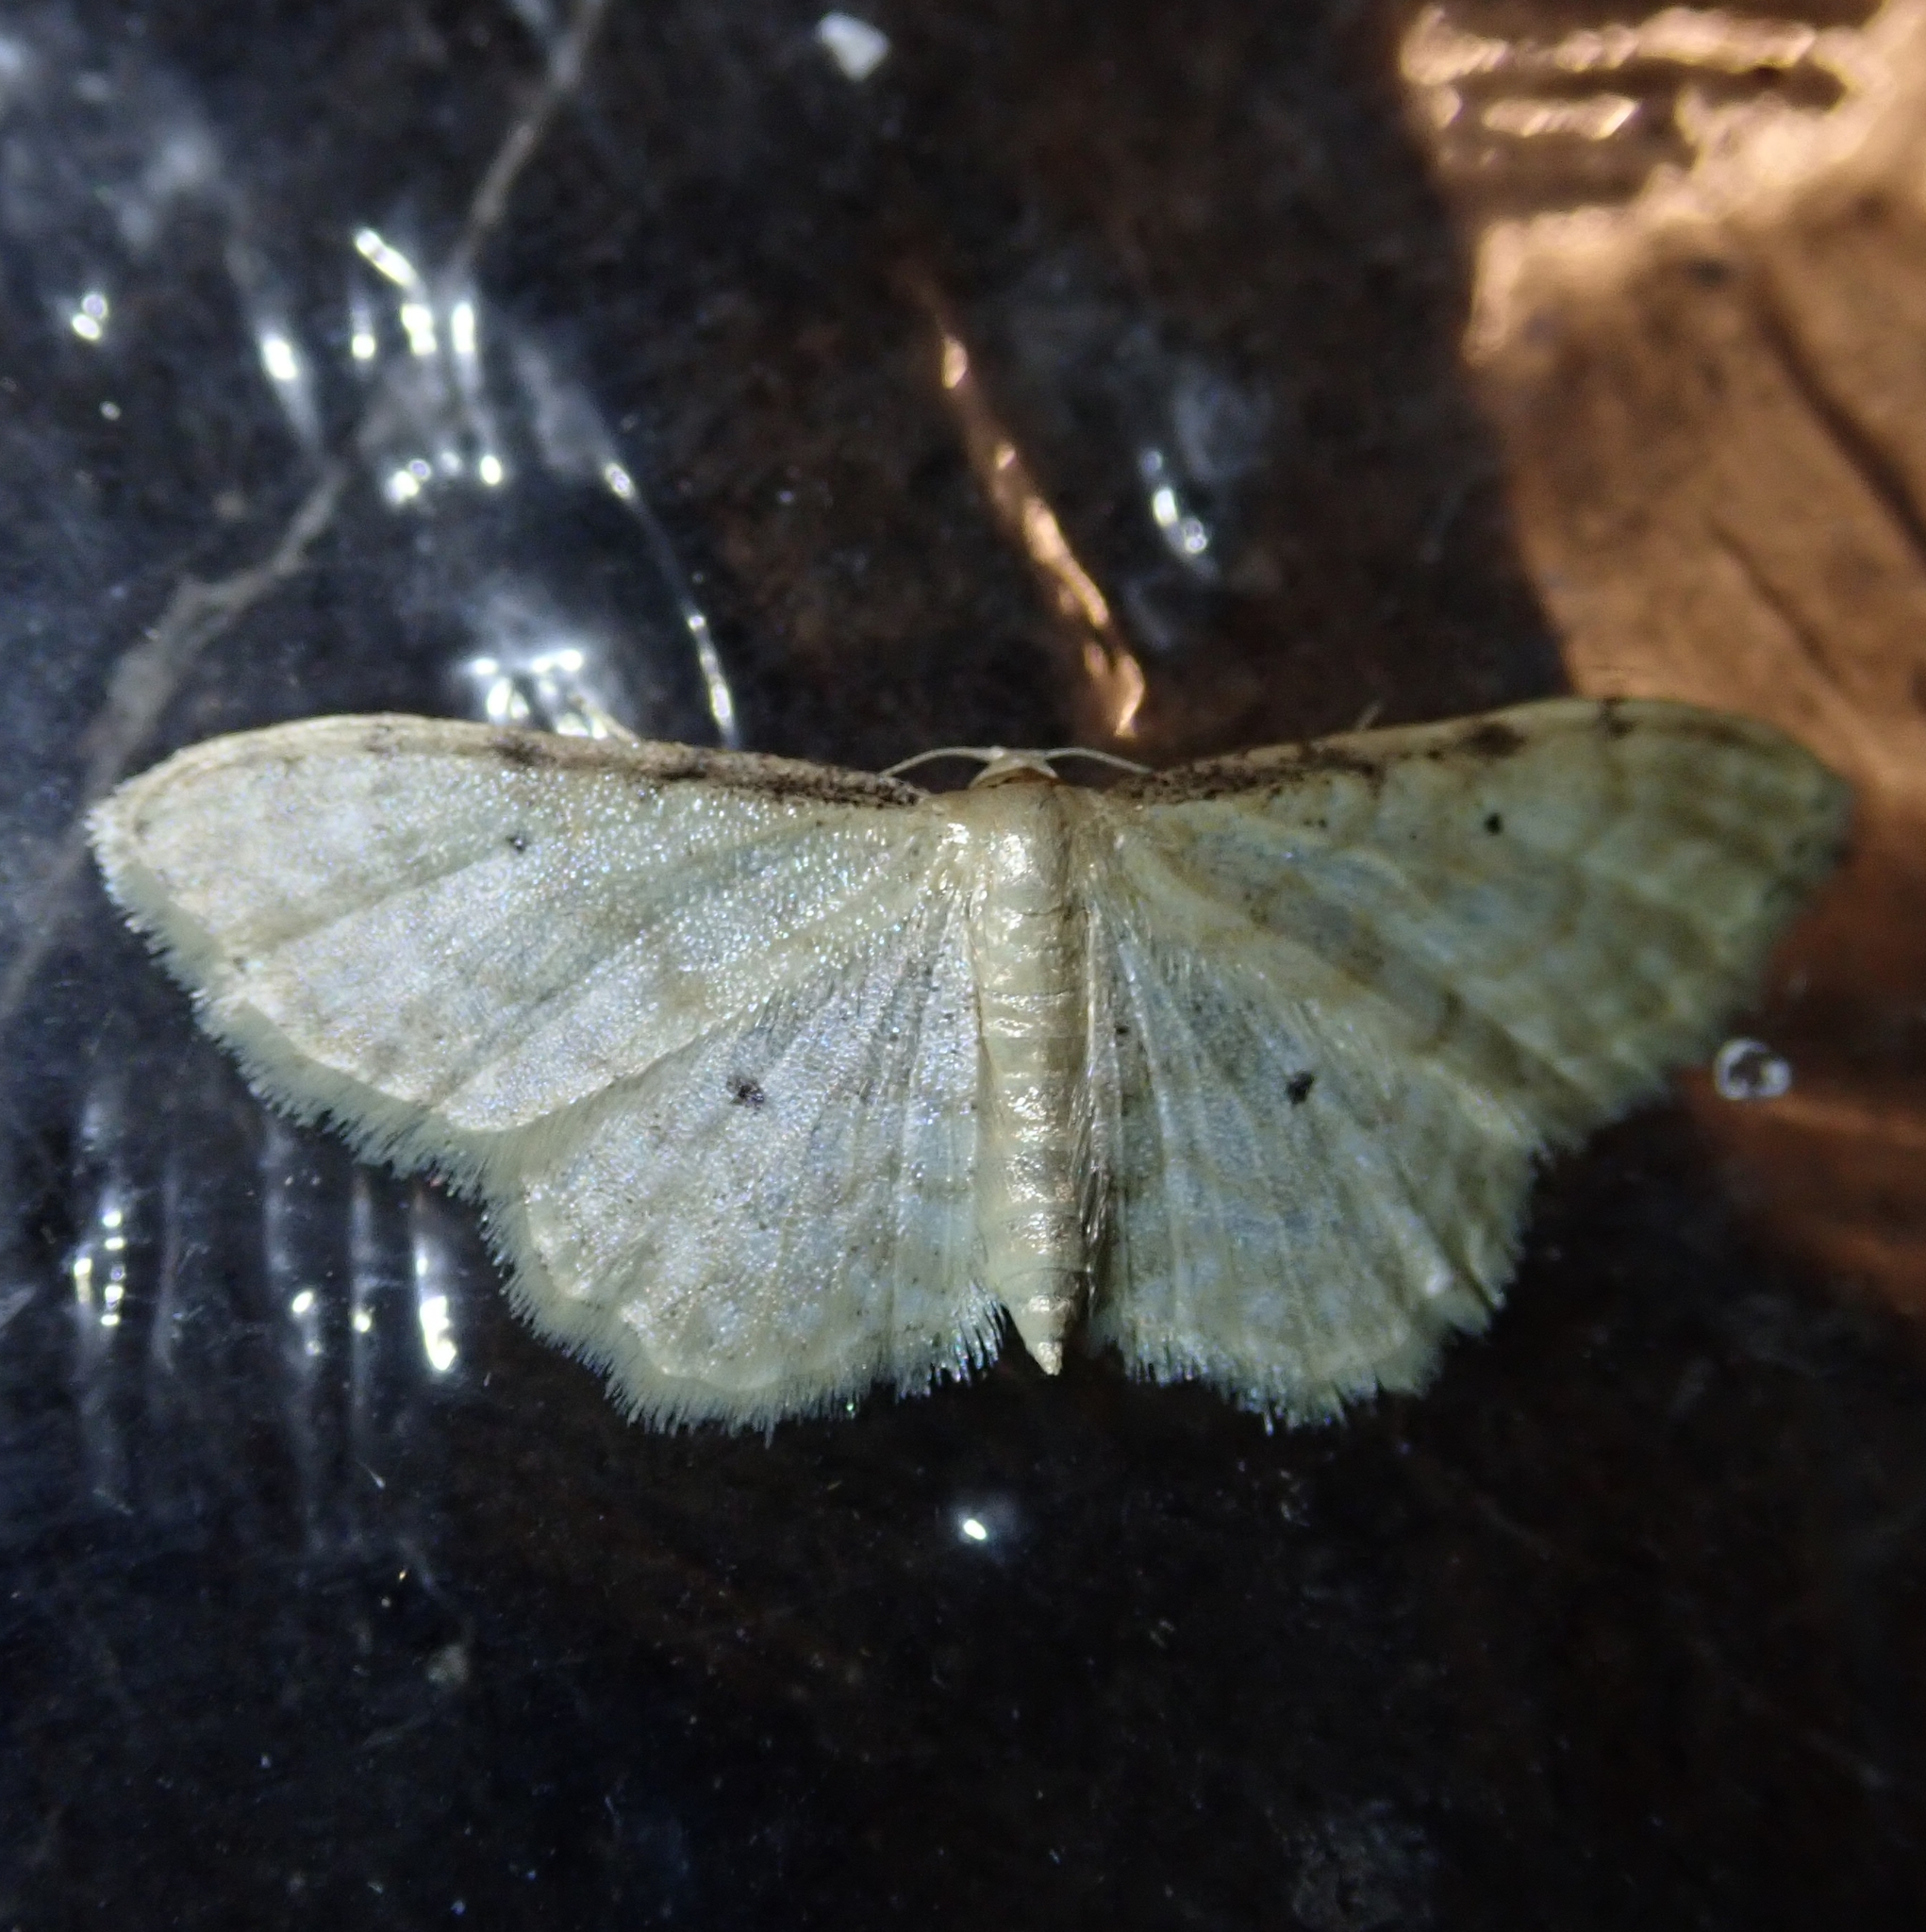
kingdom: Animalia
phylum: Arthropoda
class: Insecta
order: Lepidoptera
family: Geometridae
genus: Idaea
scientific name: Idaea fuscovenosa
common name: Dwarf cream wave
